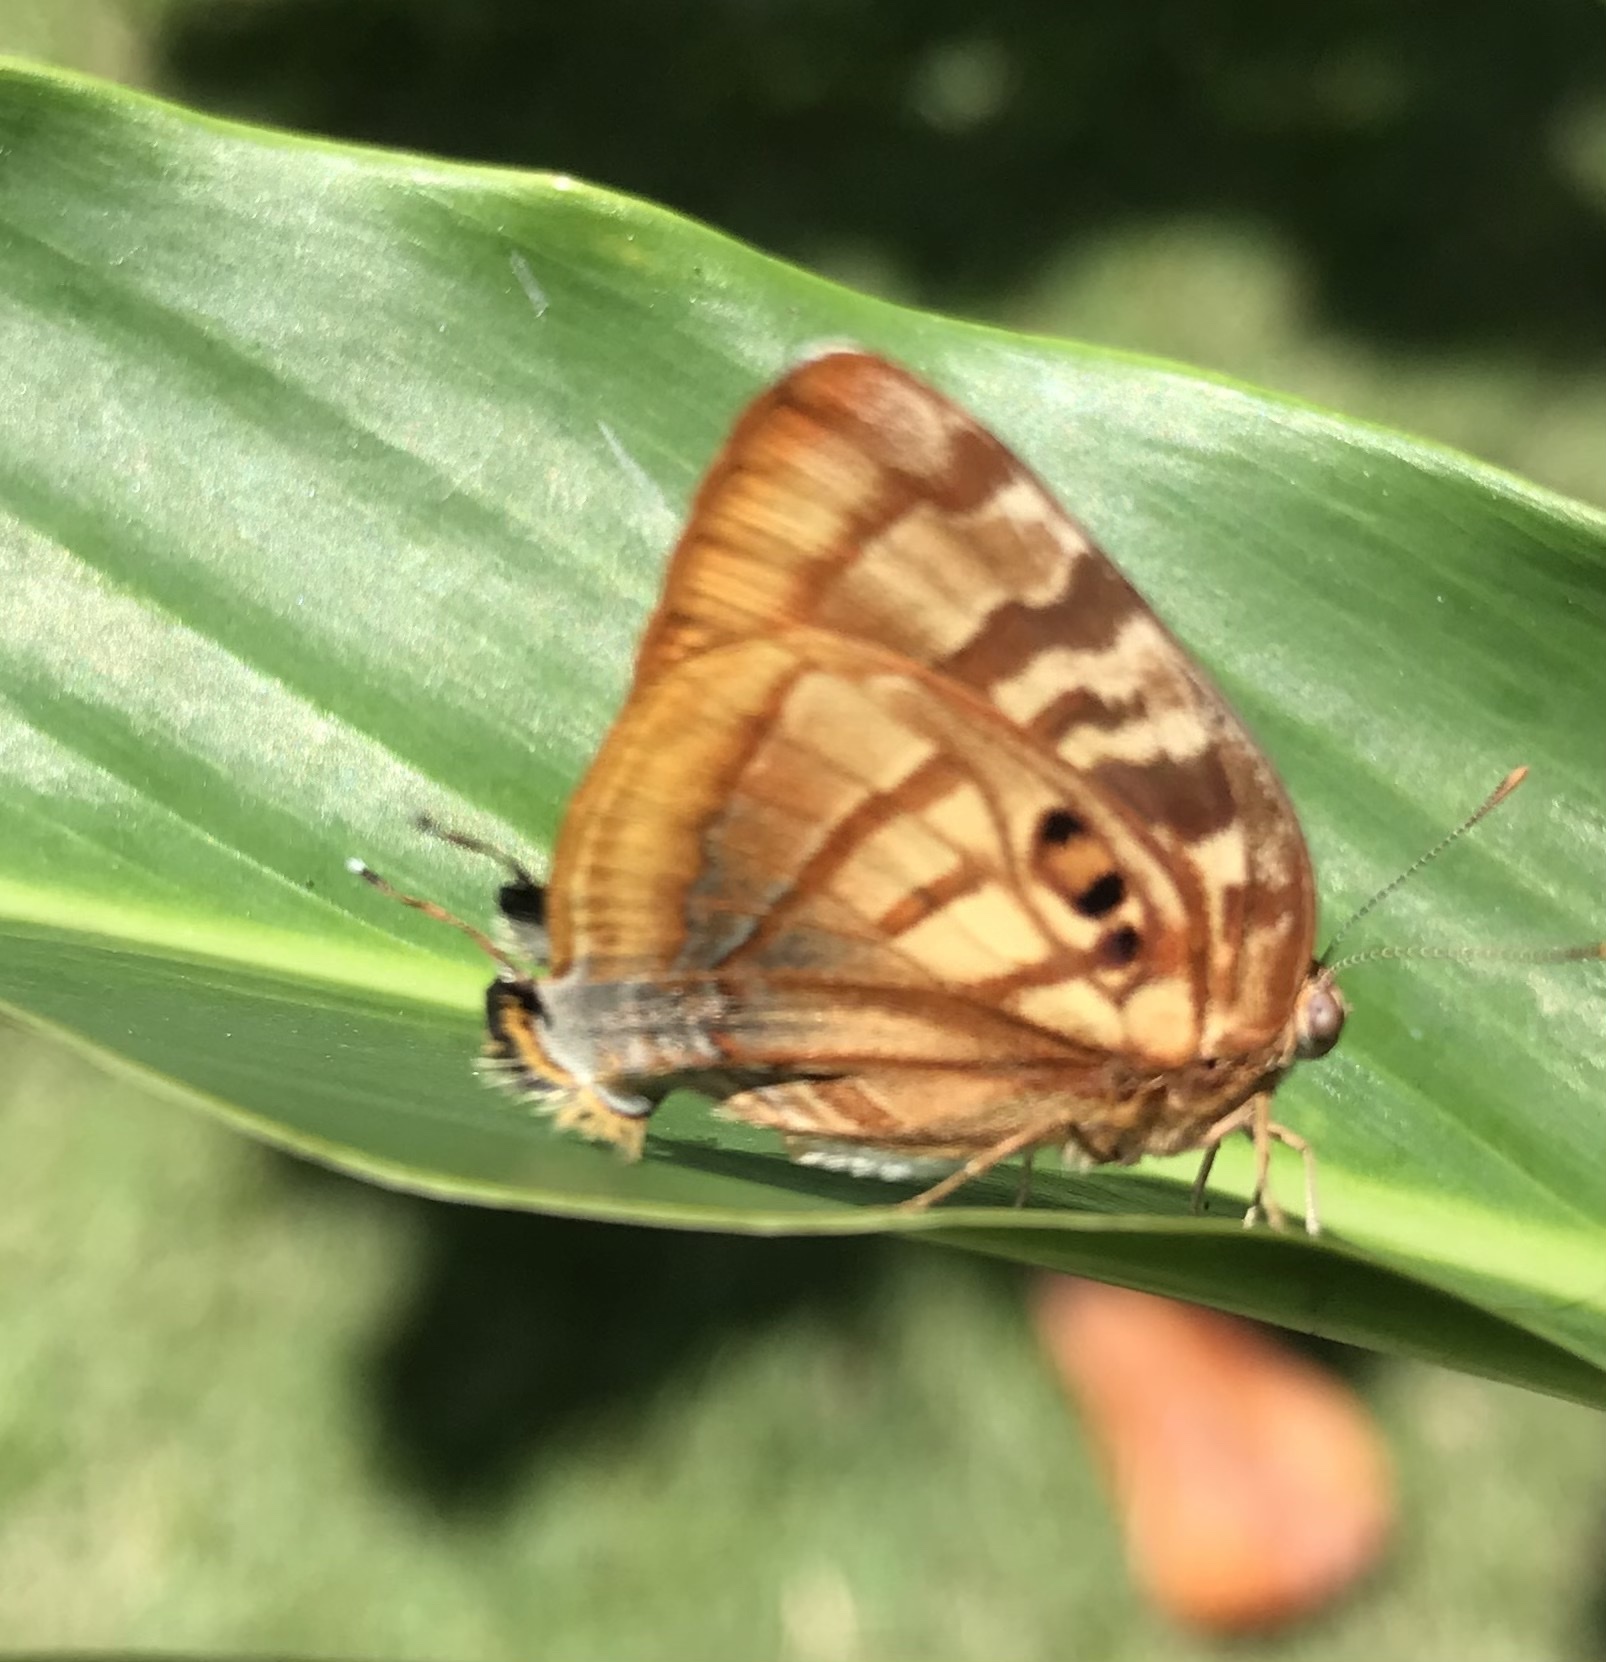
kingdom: Animalia
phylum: Arthropoda
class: Insecta
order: Lepidoptera
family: Lycaenidae
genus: Rekoa
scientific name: Rekoa meton
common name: Meton hairstreak
